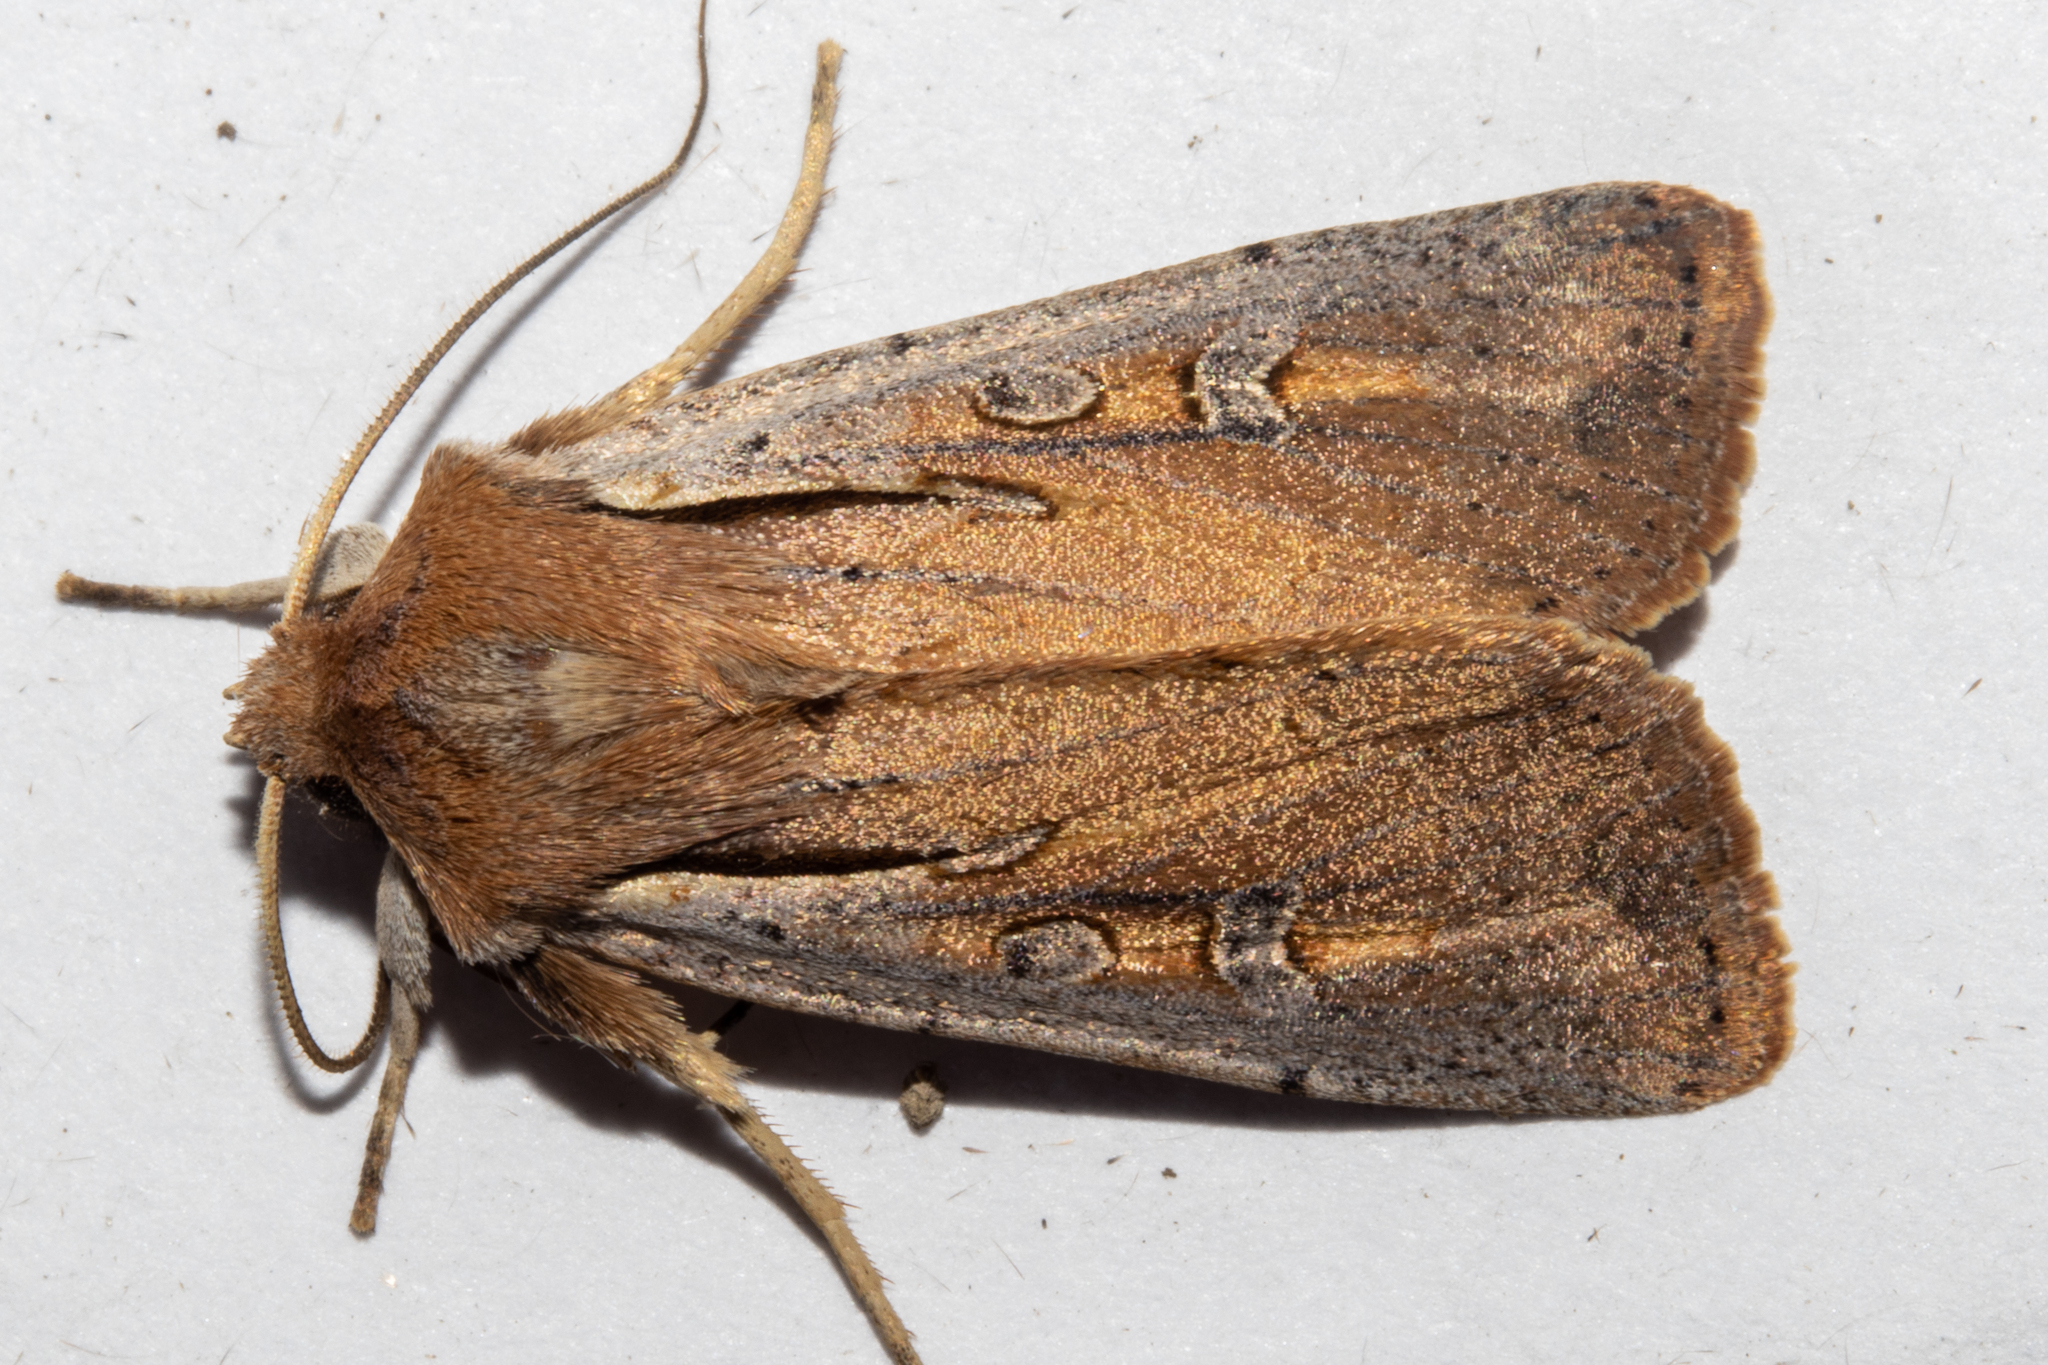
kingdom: Animalia
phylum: Arthropoda
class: Insecta
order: Lepidoptera
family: Noctuidae
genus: Ichneutica
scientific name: Ichneutica atristriga
